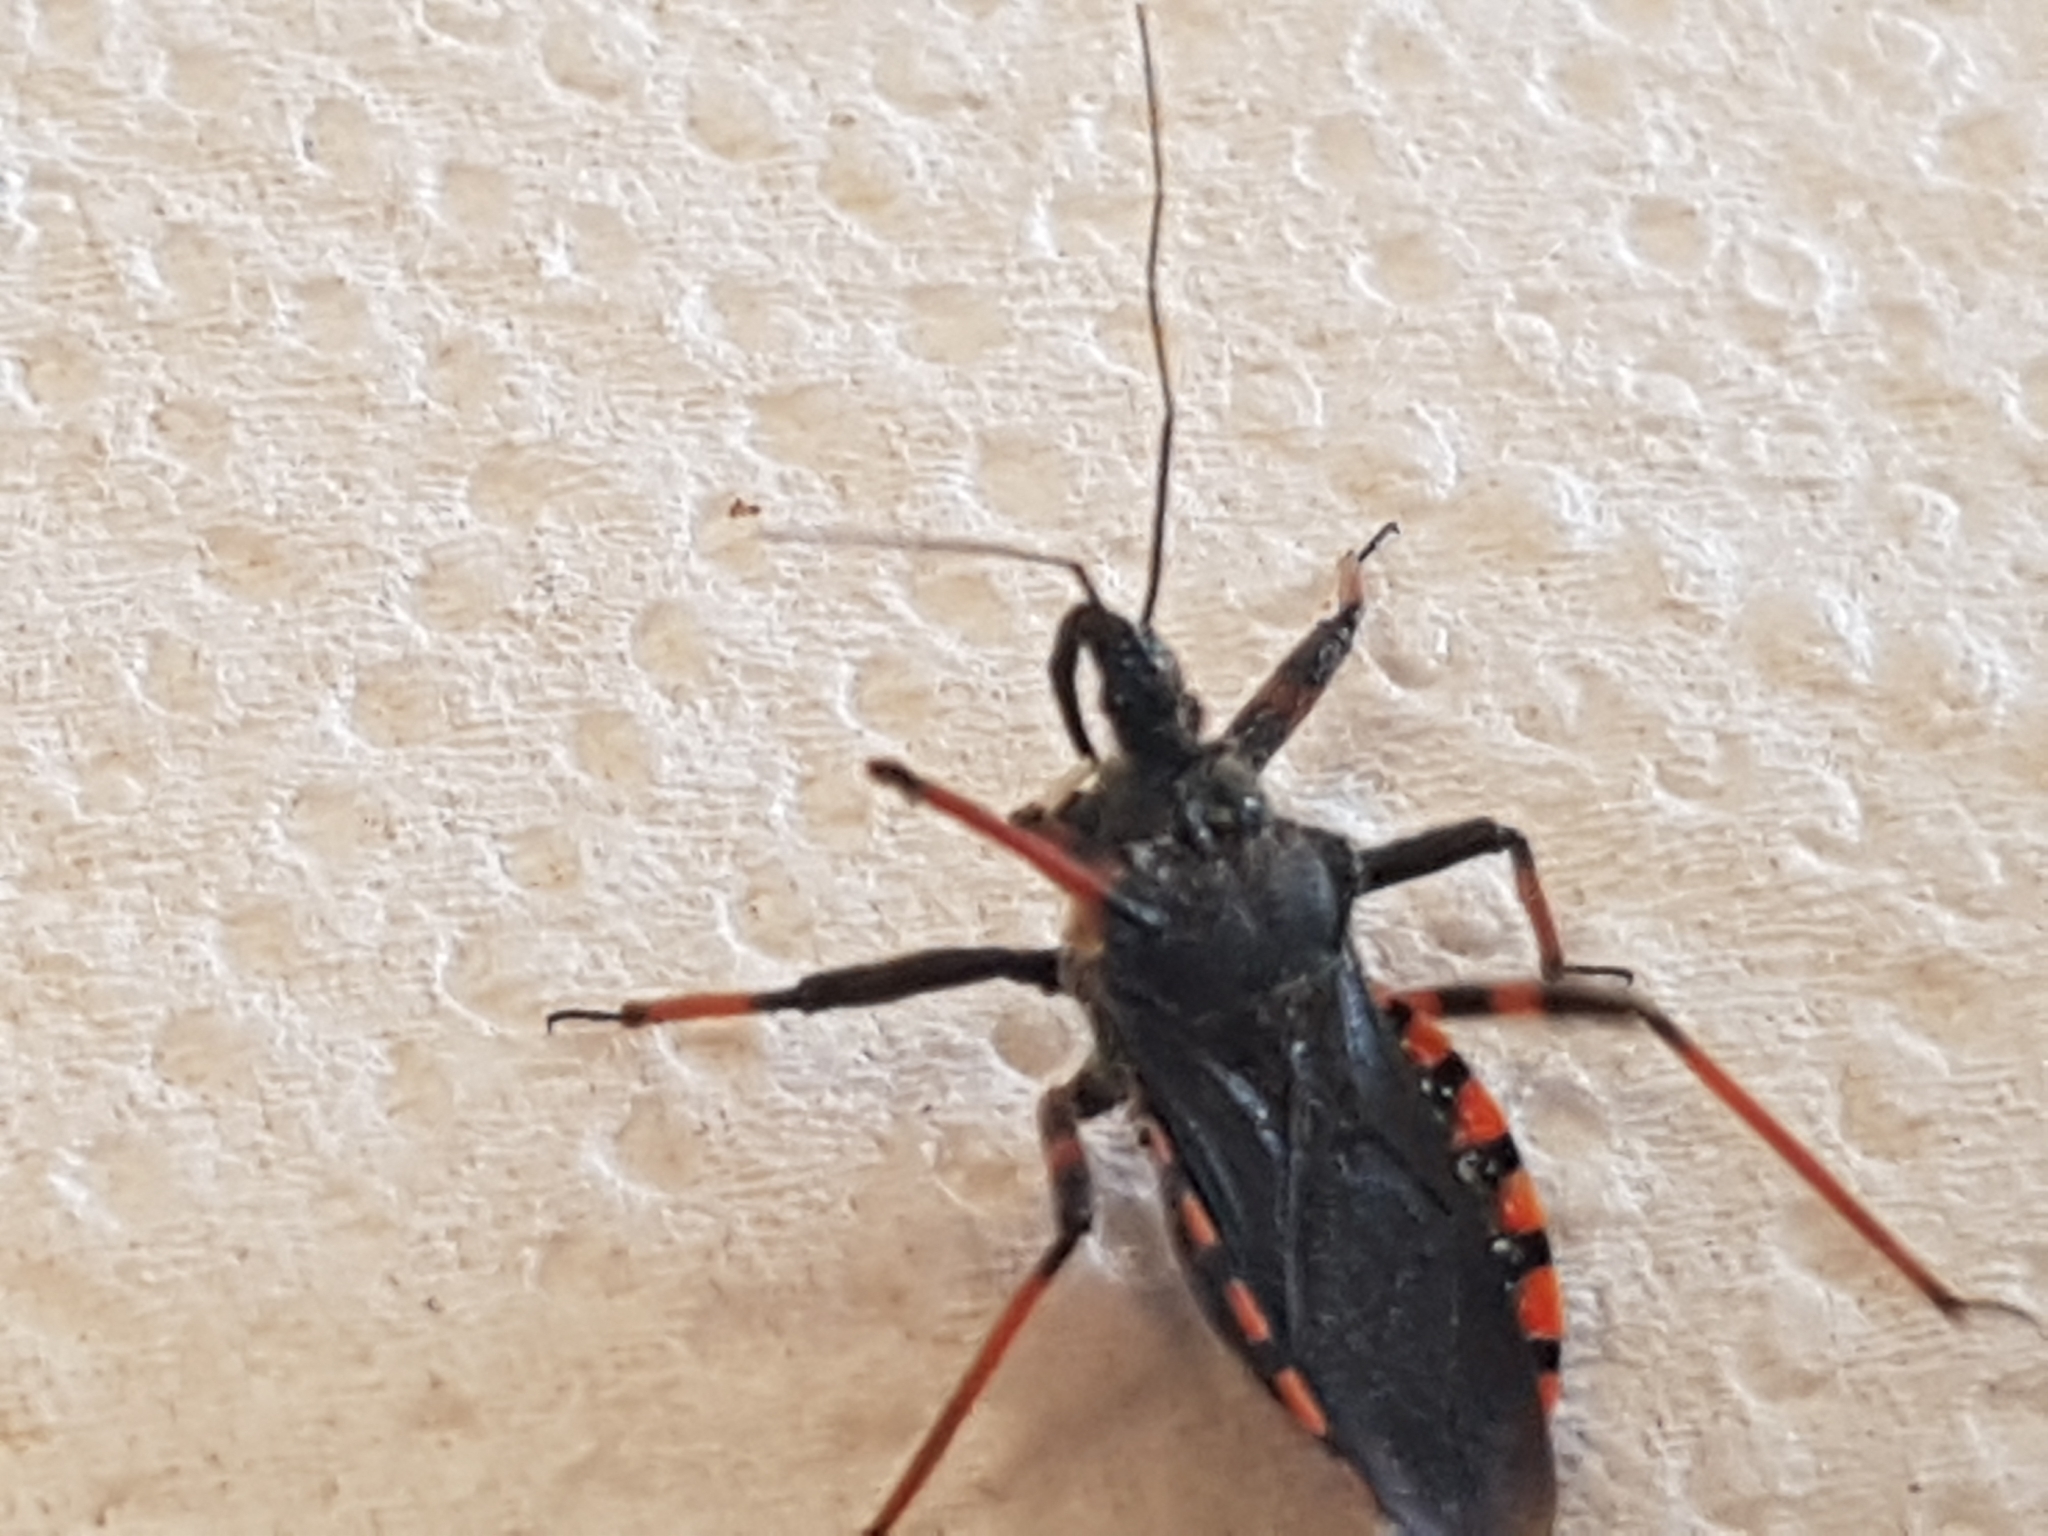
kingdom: Animalia
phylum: Arthropoda
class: Insecta
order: Hemiptera
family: Reduviidae
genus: Rhynocoris
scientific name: Rhynocoris annulatus
